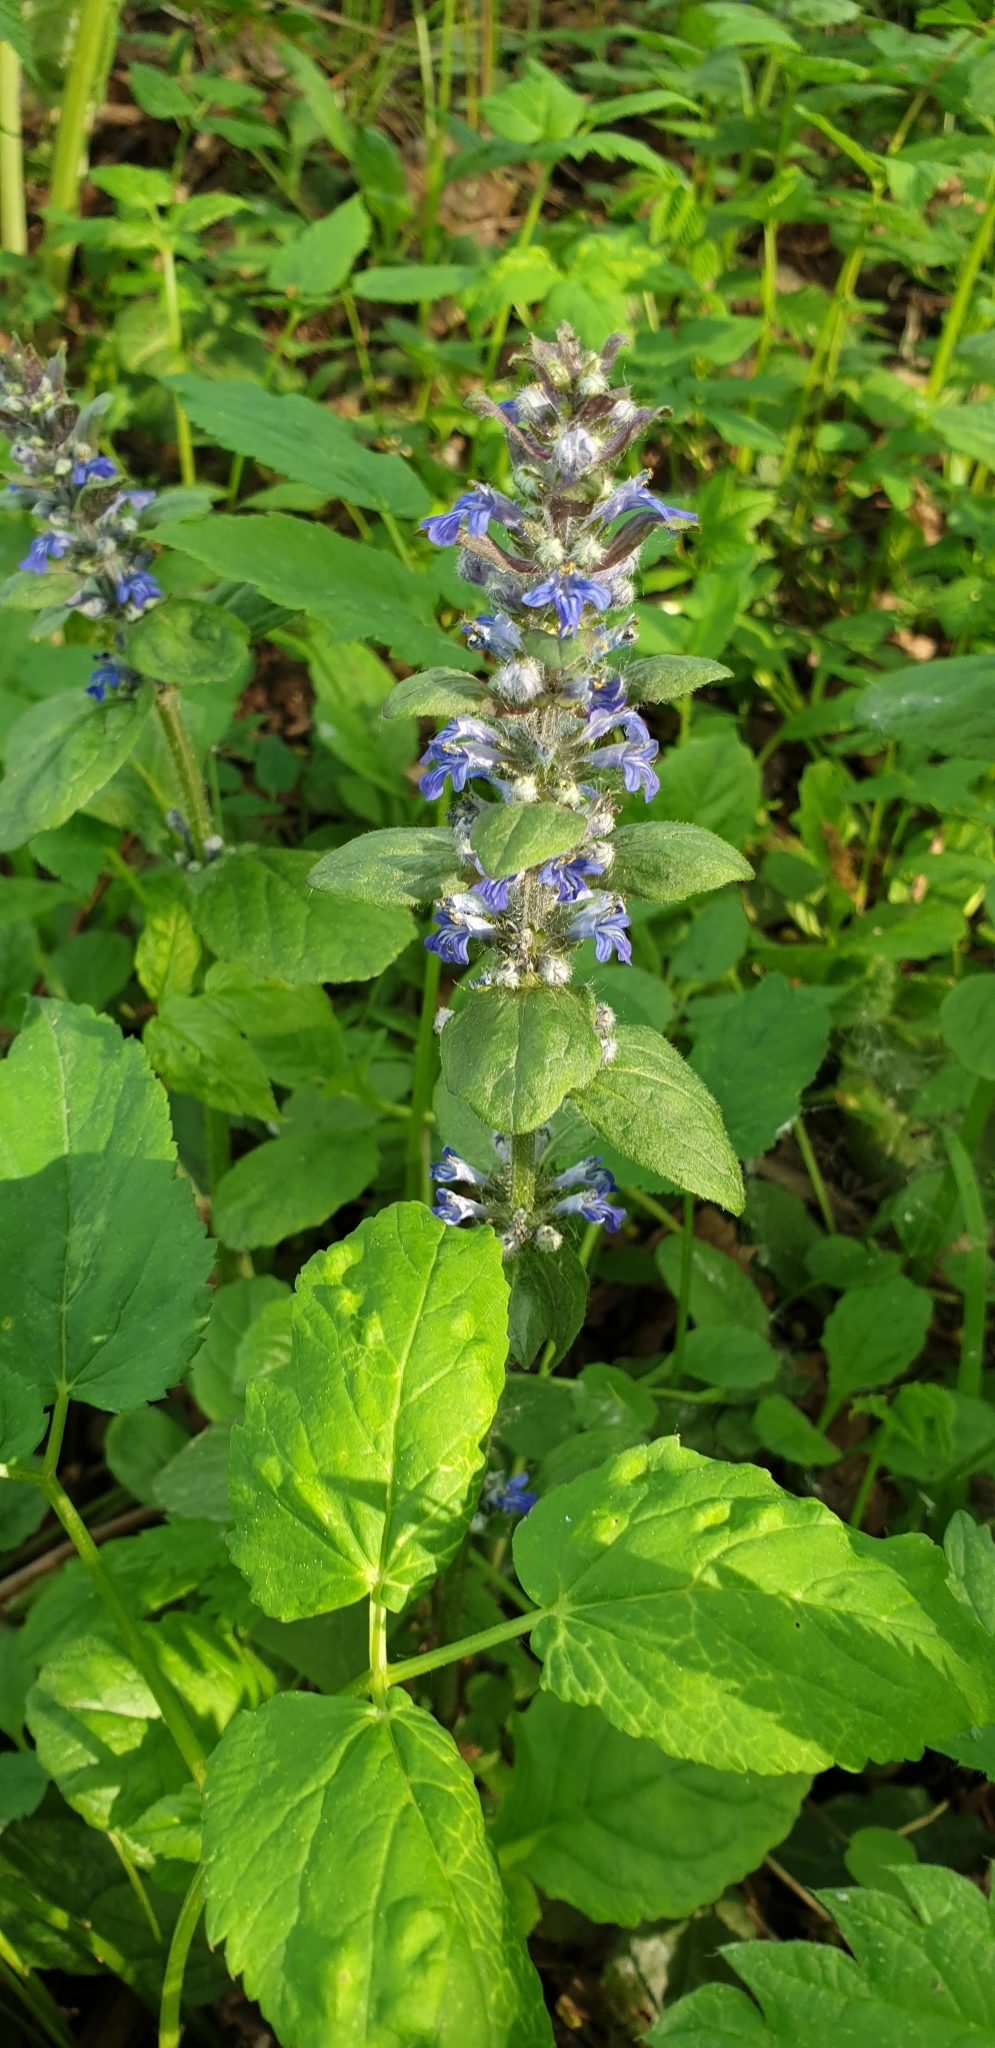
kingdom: Plantae
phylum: Tracheophyta
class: Magnoliopsida
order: Lamiales
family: Lamiaceae
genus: Ajuga
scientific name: Ajuga reptans
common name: Bugle
